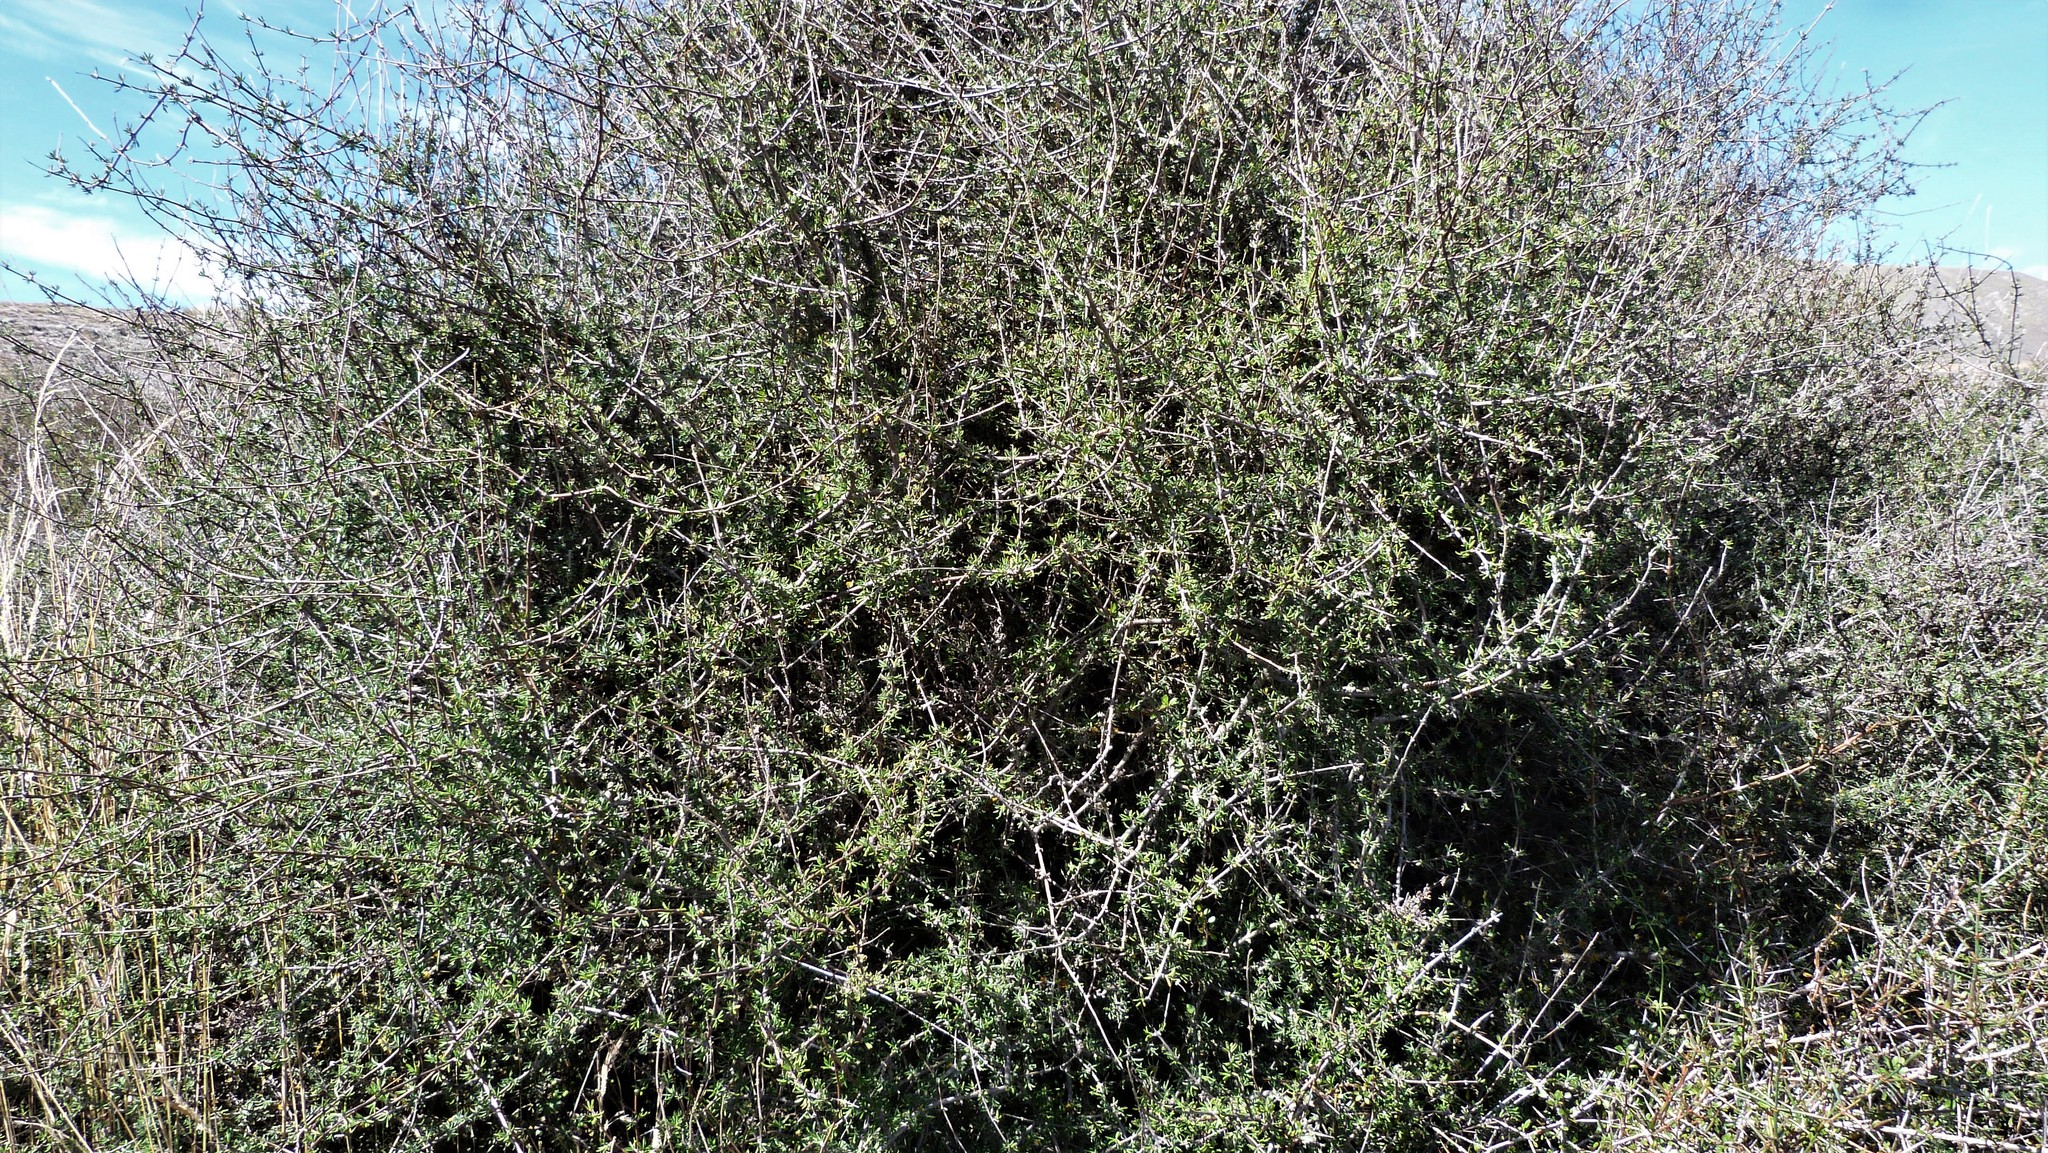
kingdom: Plantae
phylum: Tracheophyta
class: Magnoliopsida
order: Asterales
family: Asteraceae
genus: Olearia
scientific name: Olearia bullata
